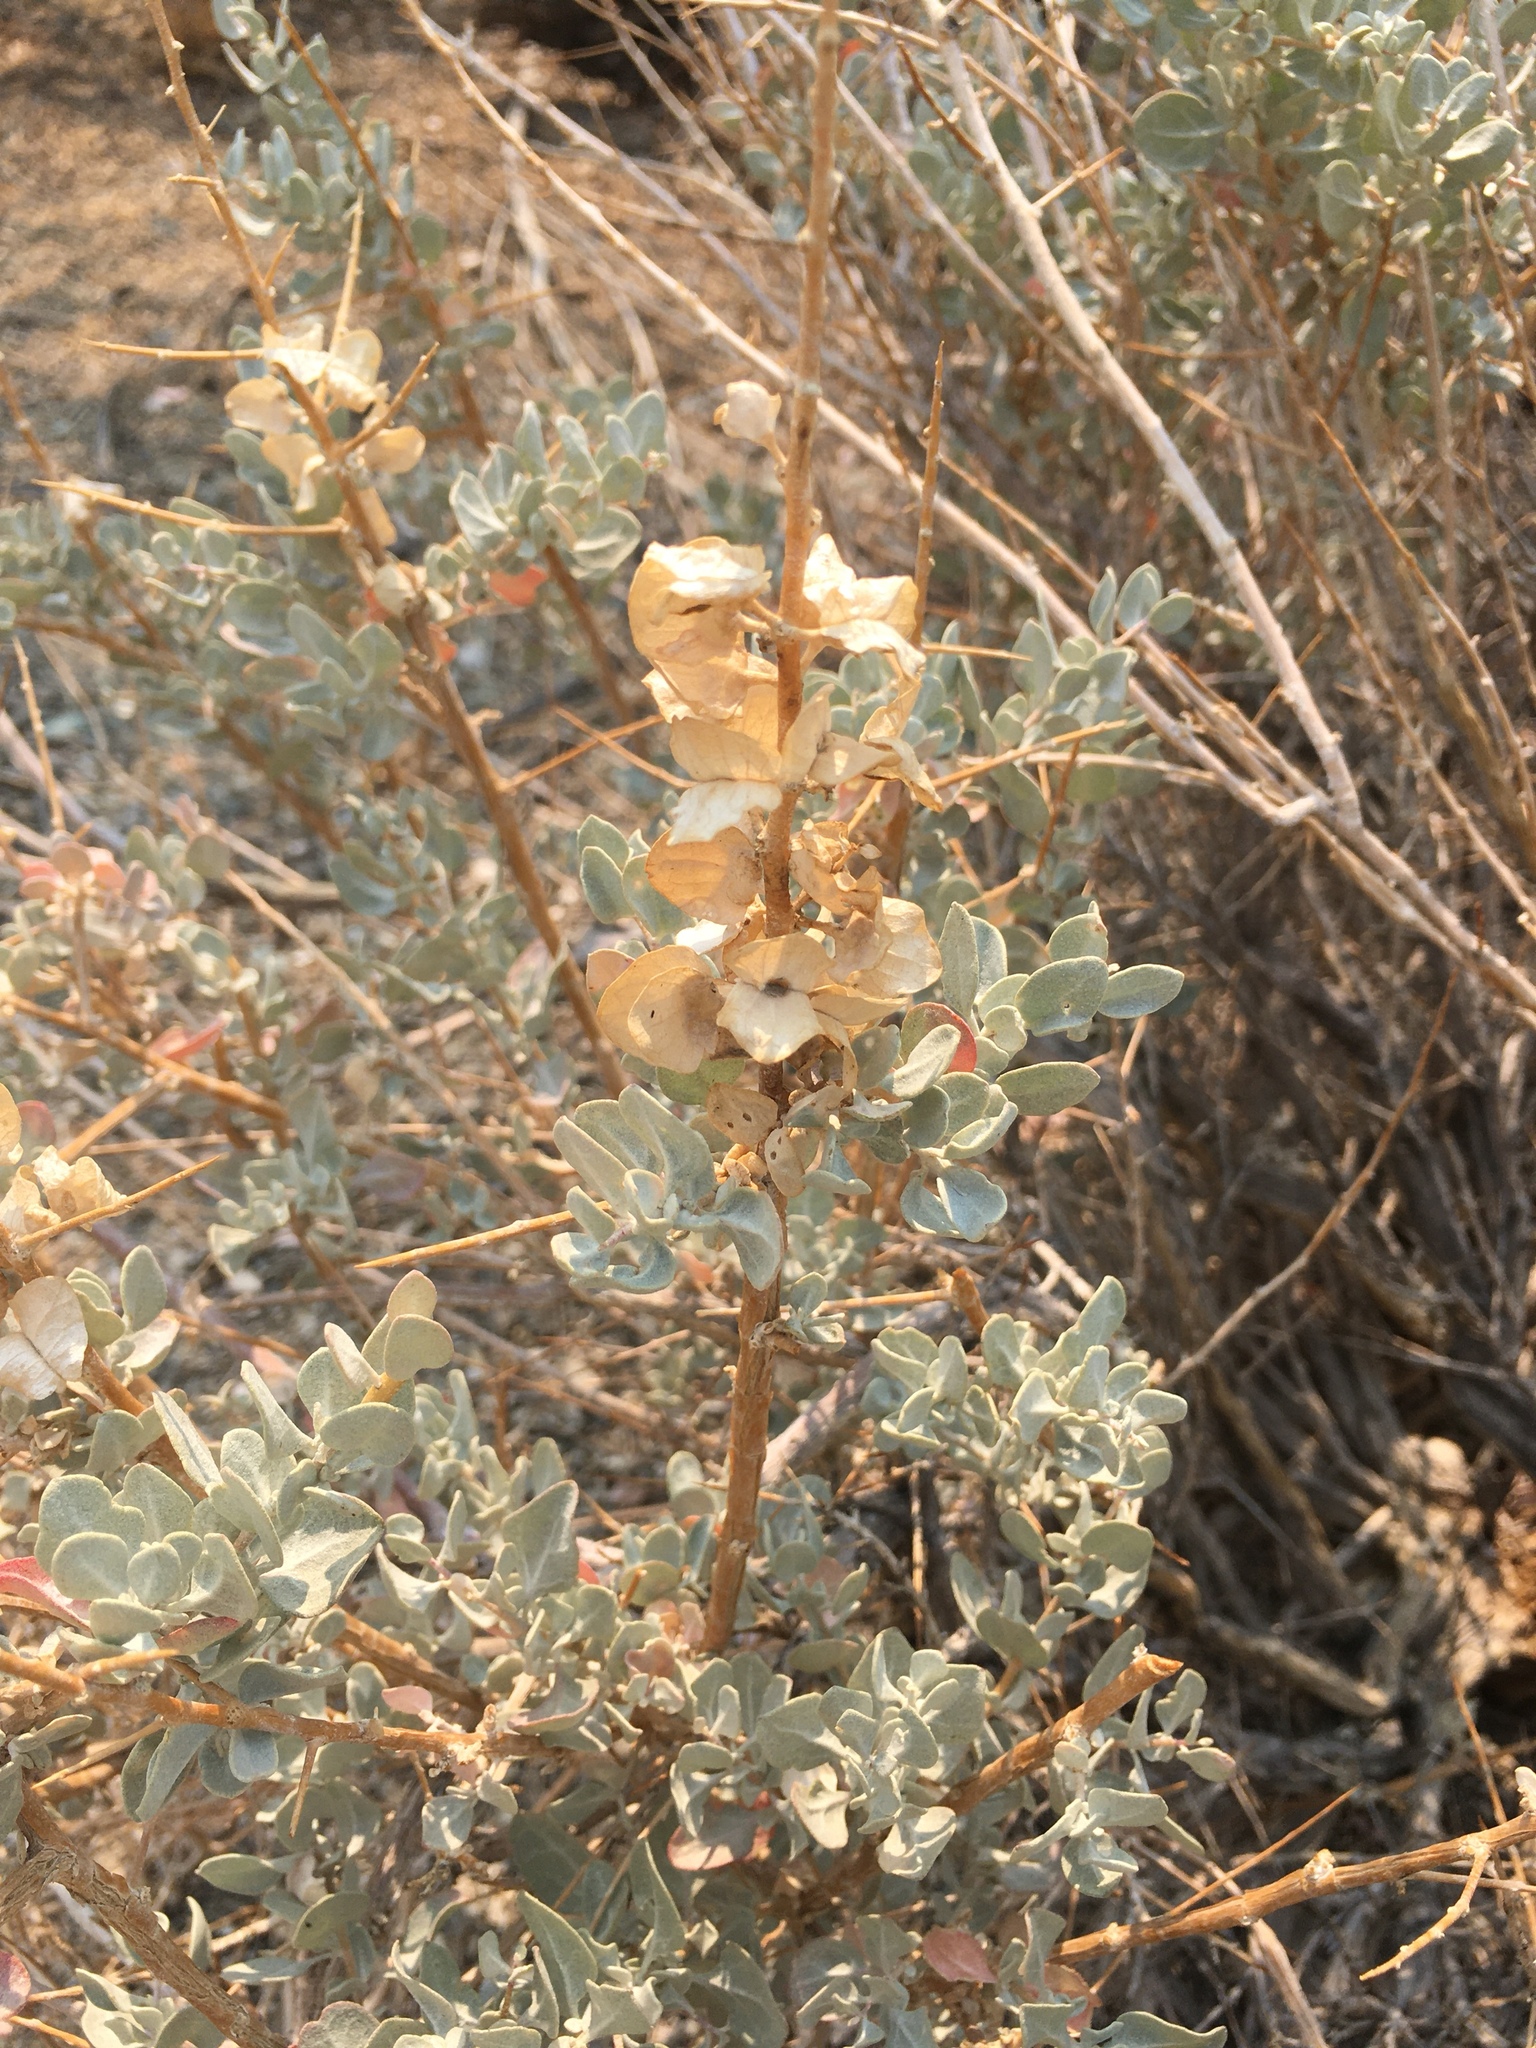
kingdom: Plantae
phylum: Tracheophyta
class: Magnoliopsida
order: Caryophyllales
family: Amaranthaceae
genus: Atriplex
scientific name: Atriplex confertifolia
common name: Shadscale
